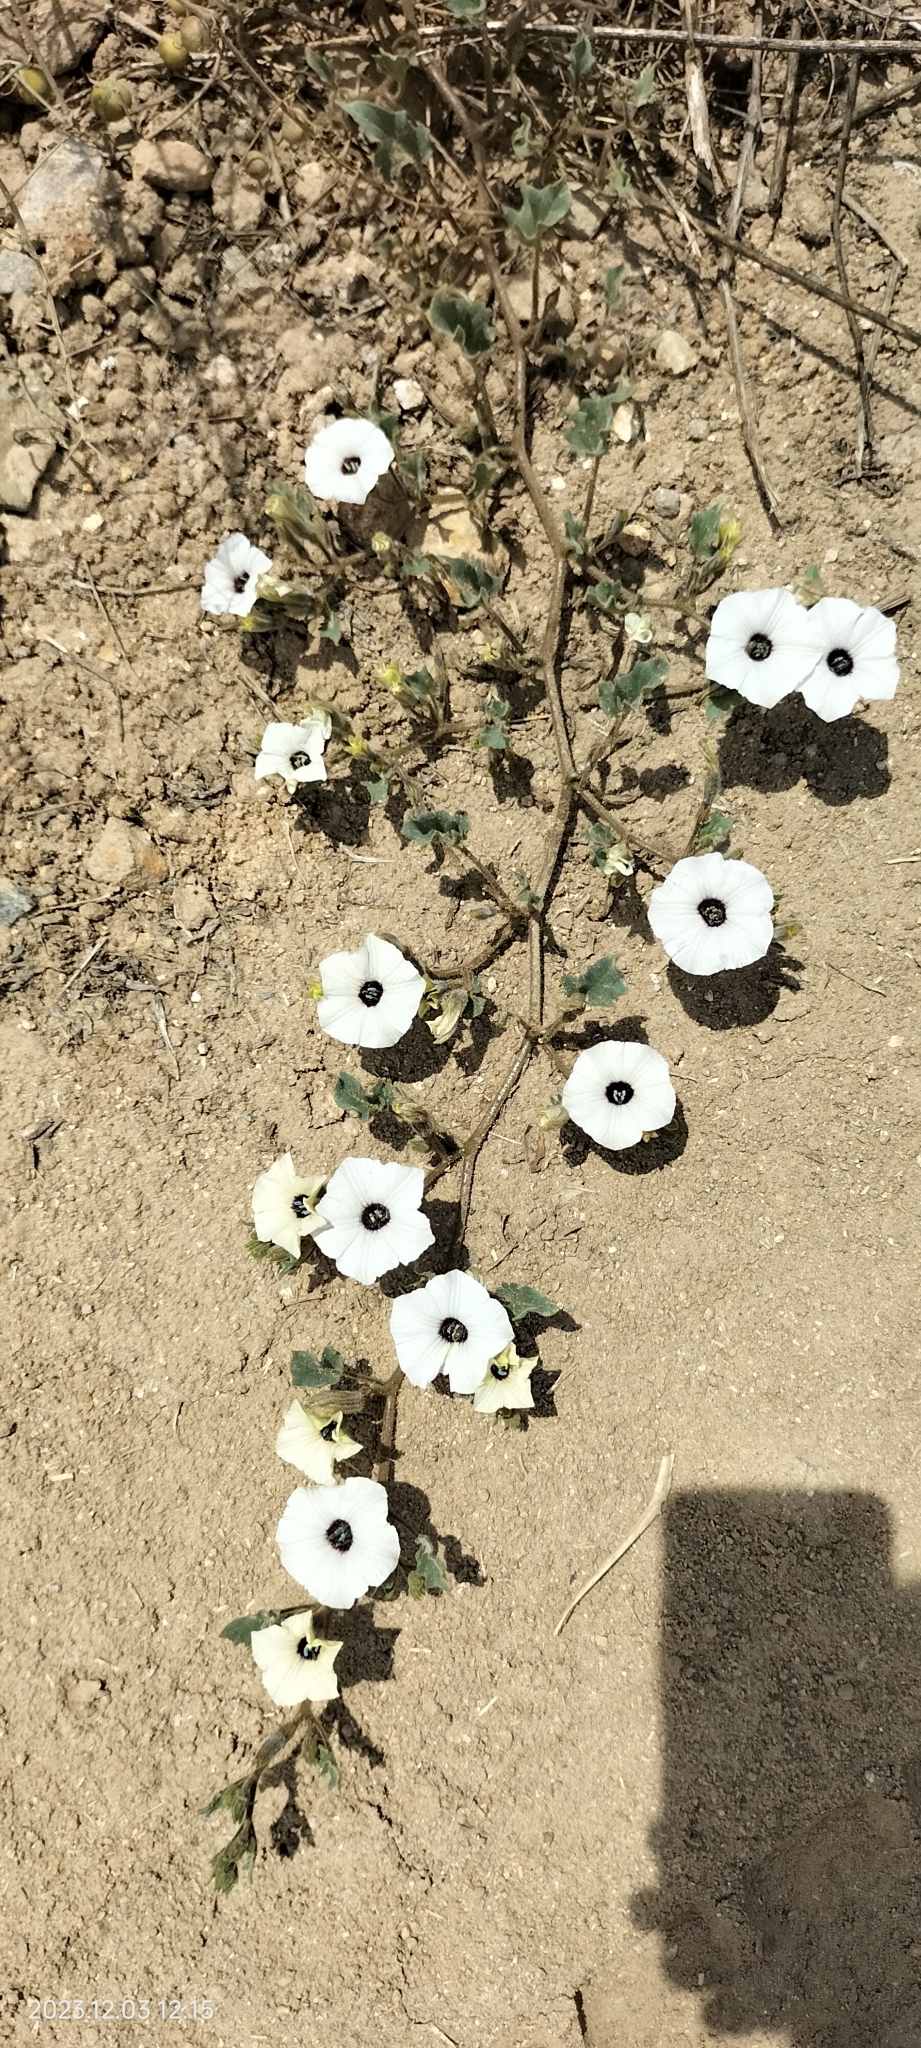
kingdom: Plantae
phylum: Tracheophyta
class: Magnoliopsida
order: Solanales
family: Solanaceae
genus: Exodeconus
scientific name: Exodeconus maritima
